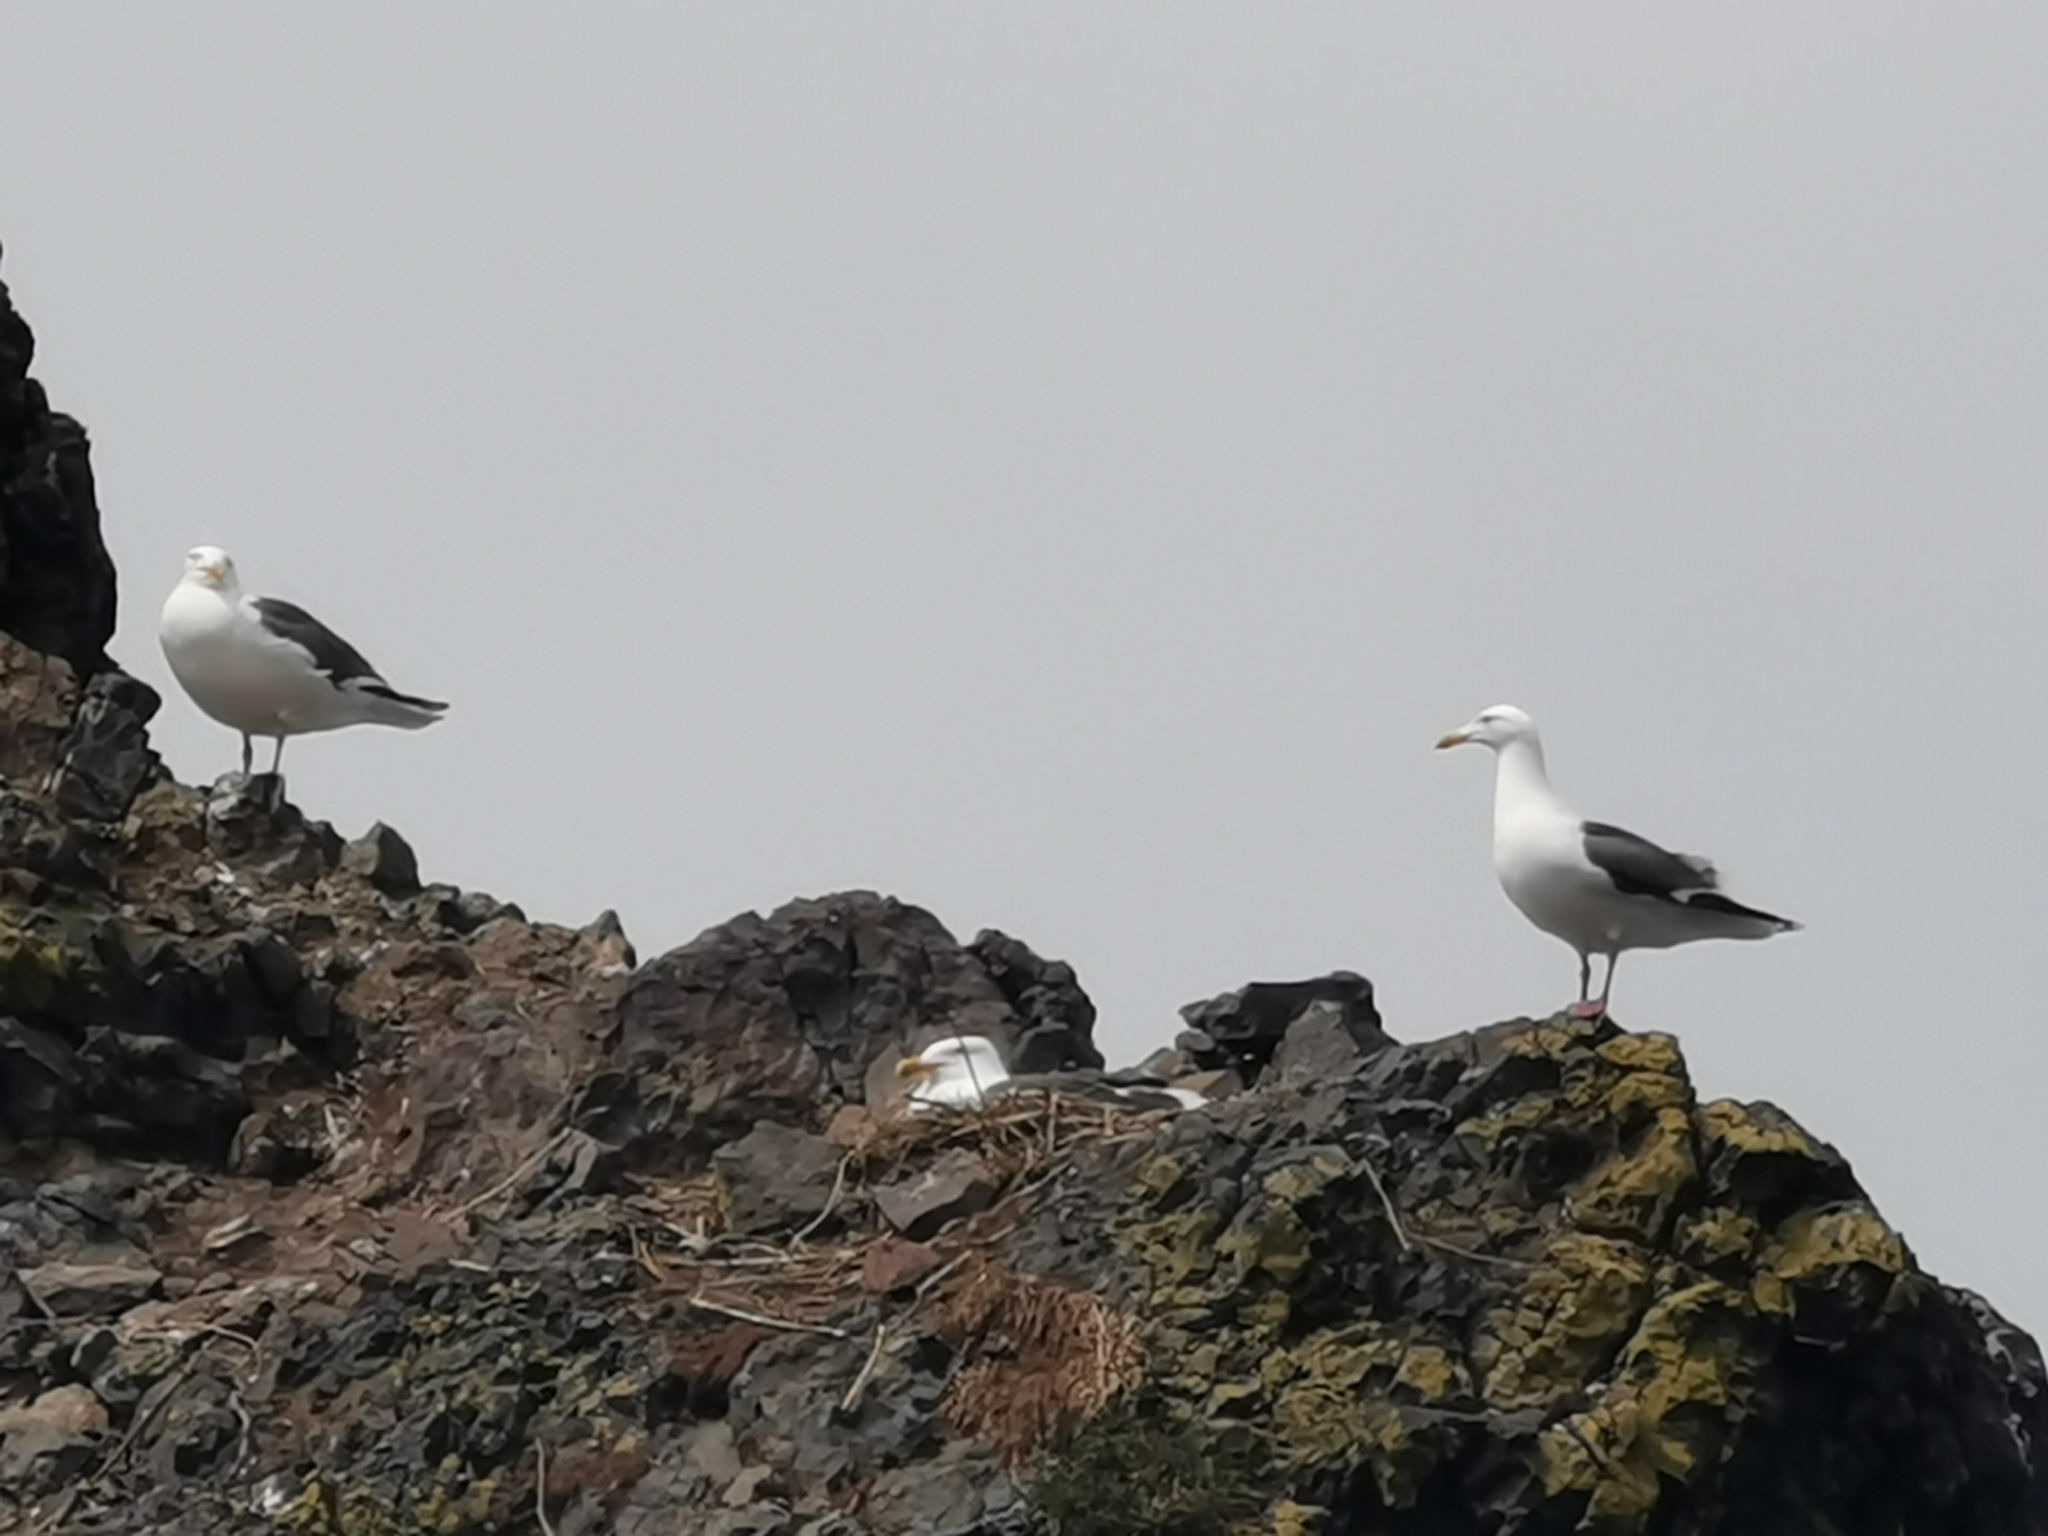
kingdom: Animalia
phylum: Chordata
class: Aves
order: Charadriiformes
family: Laridae
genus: Larus
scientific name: Larus schistisagus
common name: Slaty-backed gull
